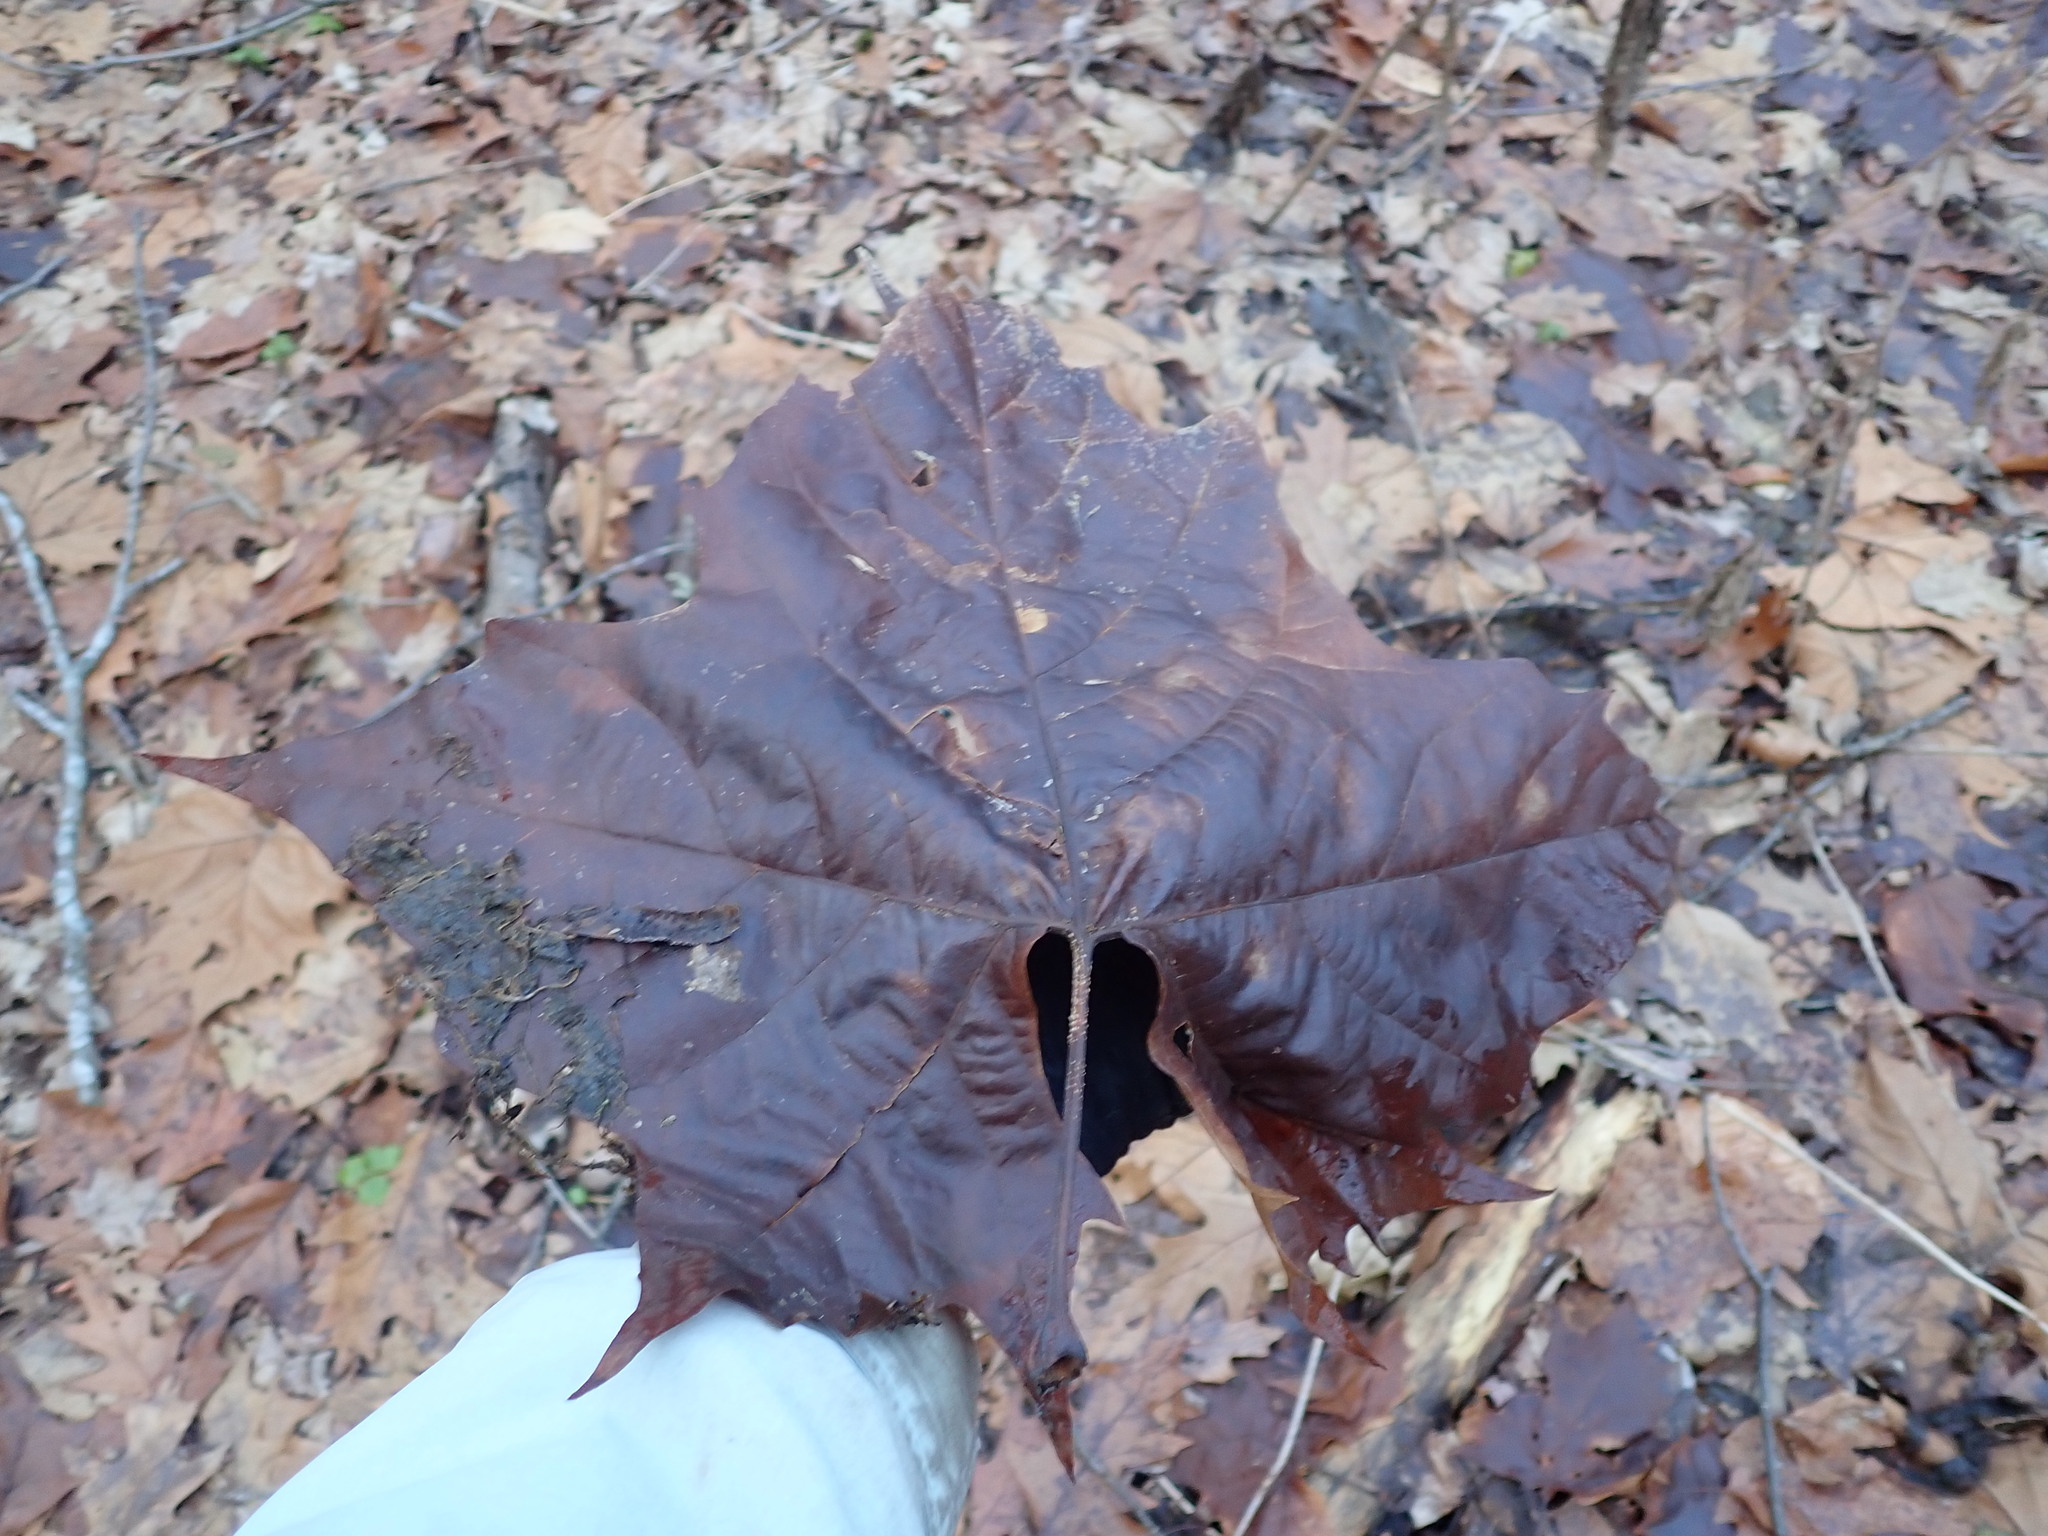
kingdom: Plantae
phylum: Tracheophyta
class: Magnoliopsida
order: Proteales
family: Platanaceae
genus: Platanus
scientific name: Platanus occidentalis
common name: American sycamore
